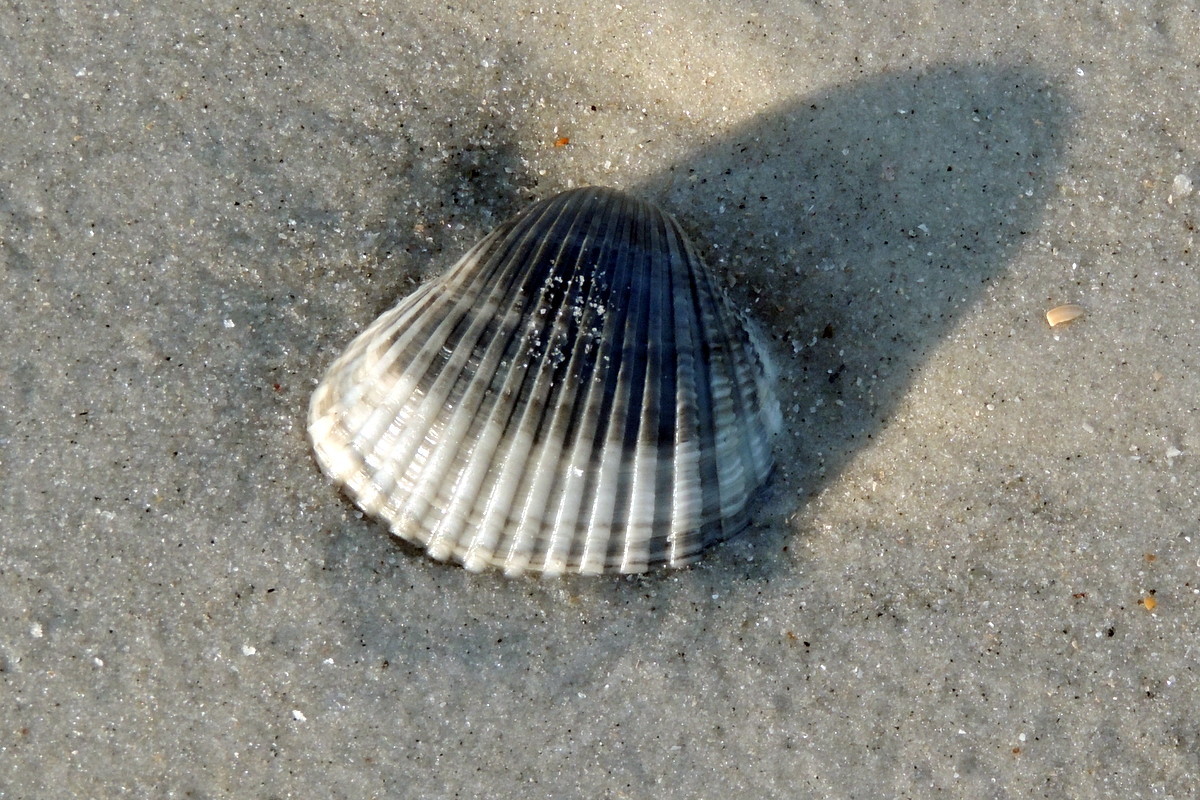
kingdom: Animalia
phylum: Mollusca
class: Bivalvia
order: Arcida
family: Arcidae
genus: Anadara
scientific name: Anadara brasiliana
